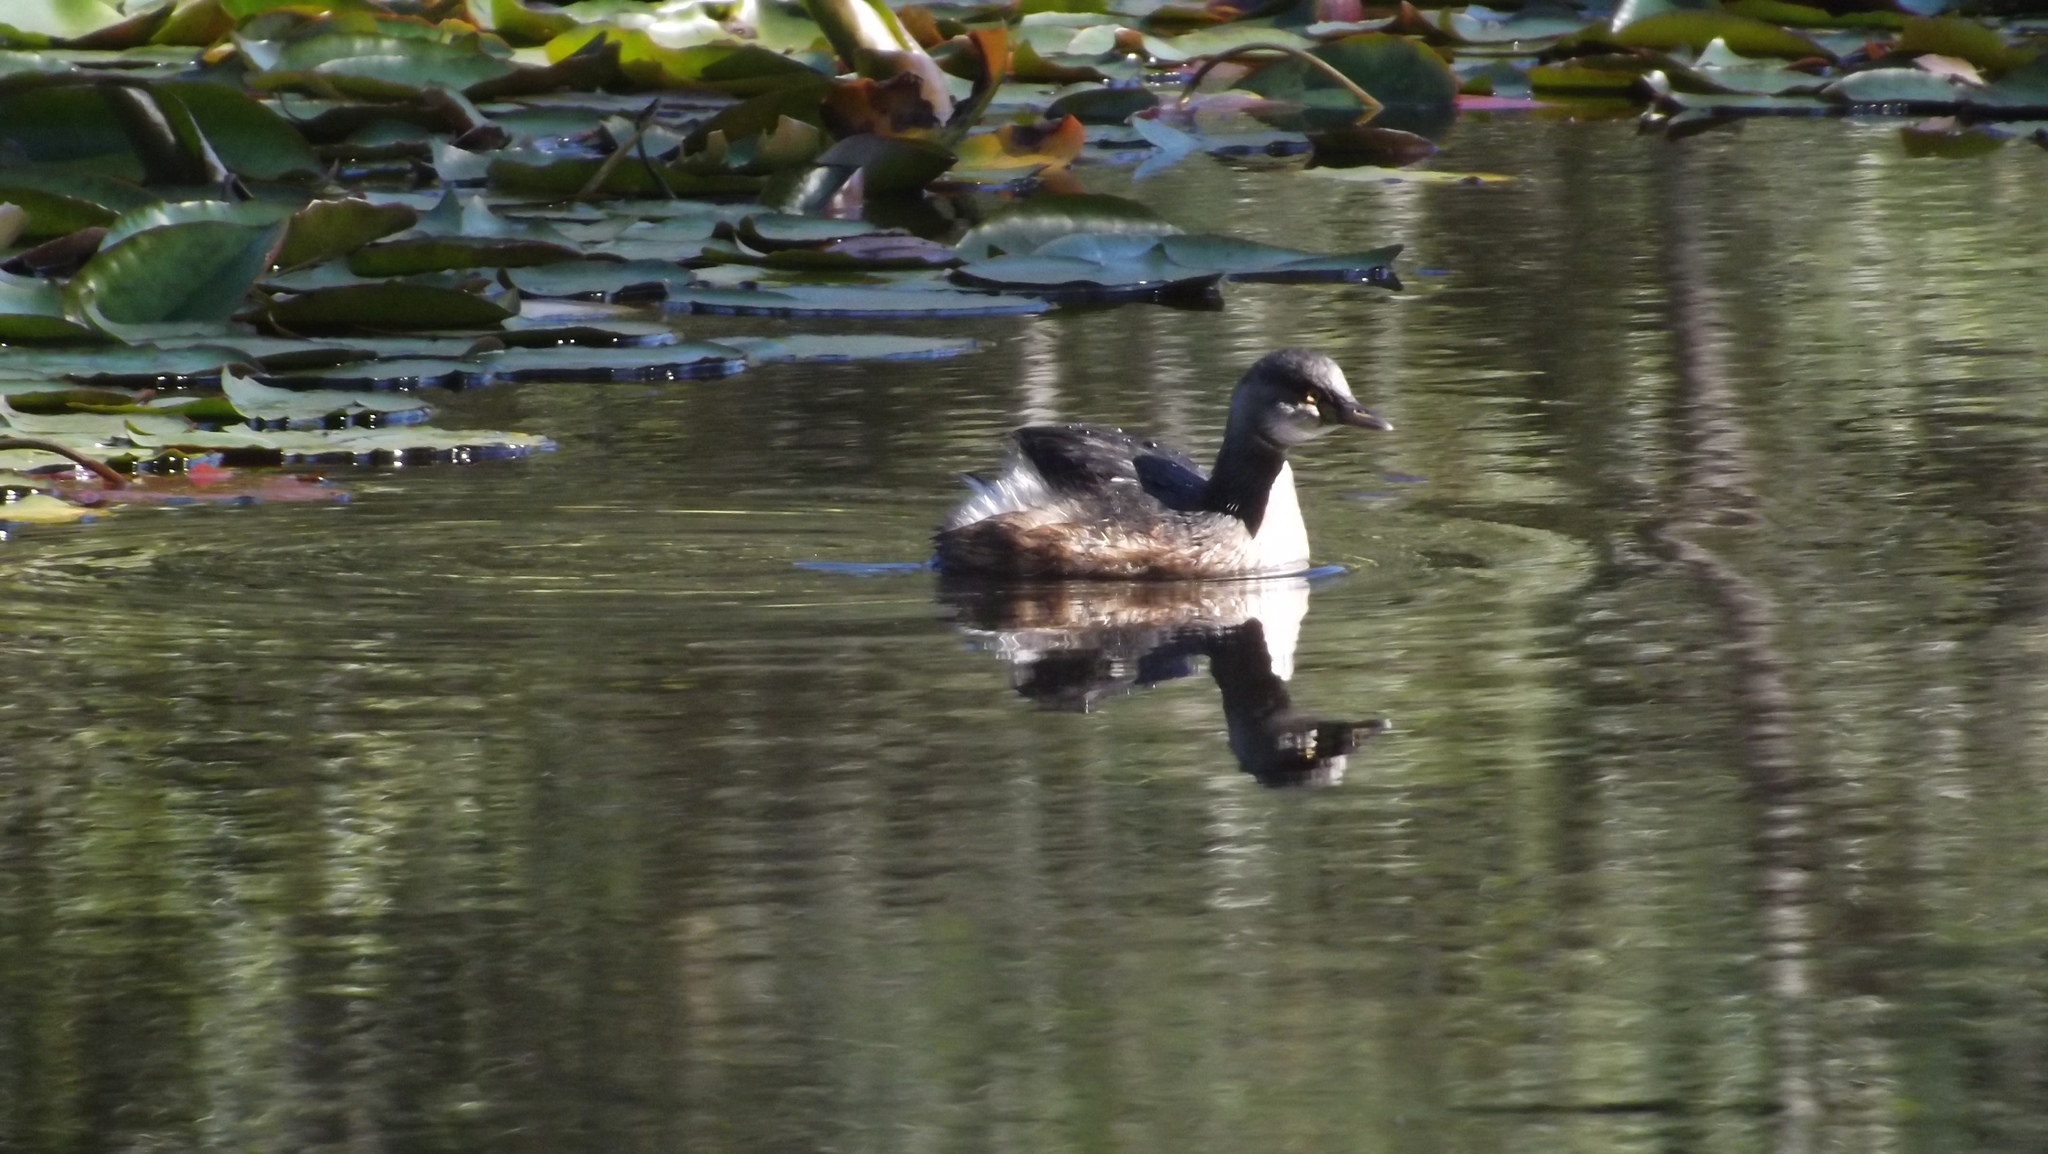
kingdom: Animalia
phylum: Chordata
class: Aves
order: Podicipediformes
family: Podicipedidae
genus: Tachybaptus
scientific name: Tachybaptus novaehollandiae
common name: Australasian grebe
